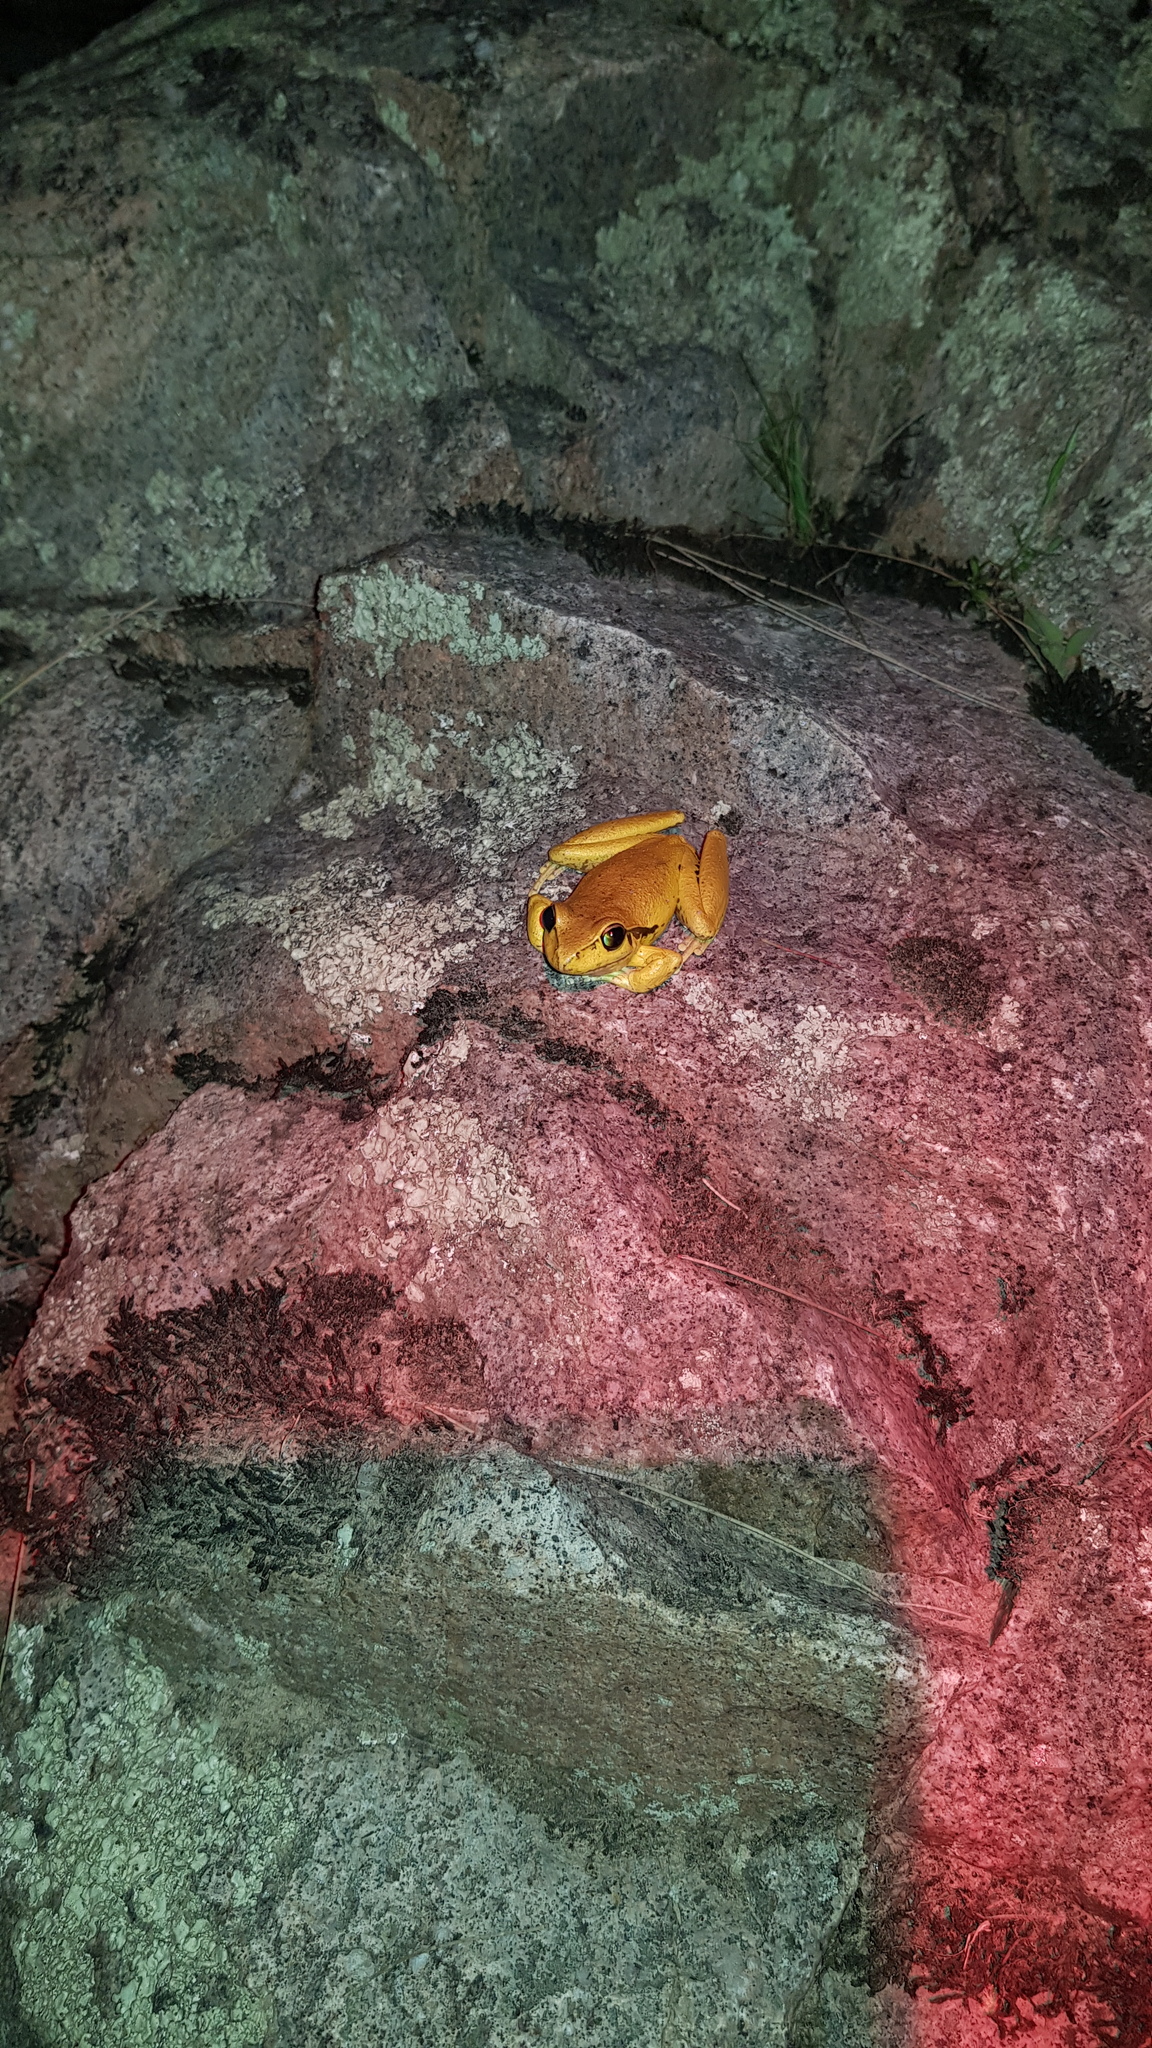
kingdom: Animalia
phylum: Chordata
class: Amphibia
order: Anura
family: Pelodryadidae
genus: Ranoidea
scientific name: Ranoidea lesueurii
